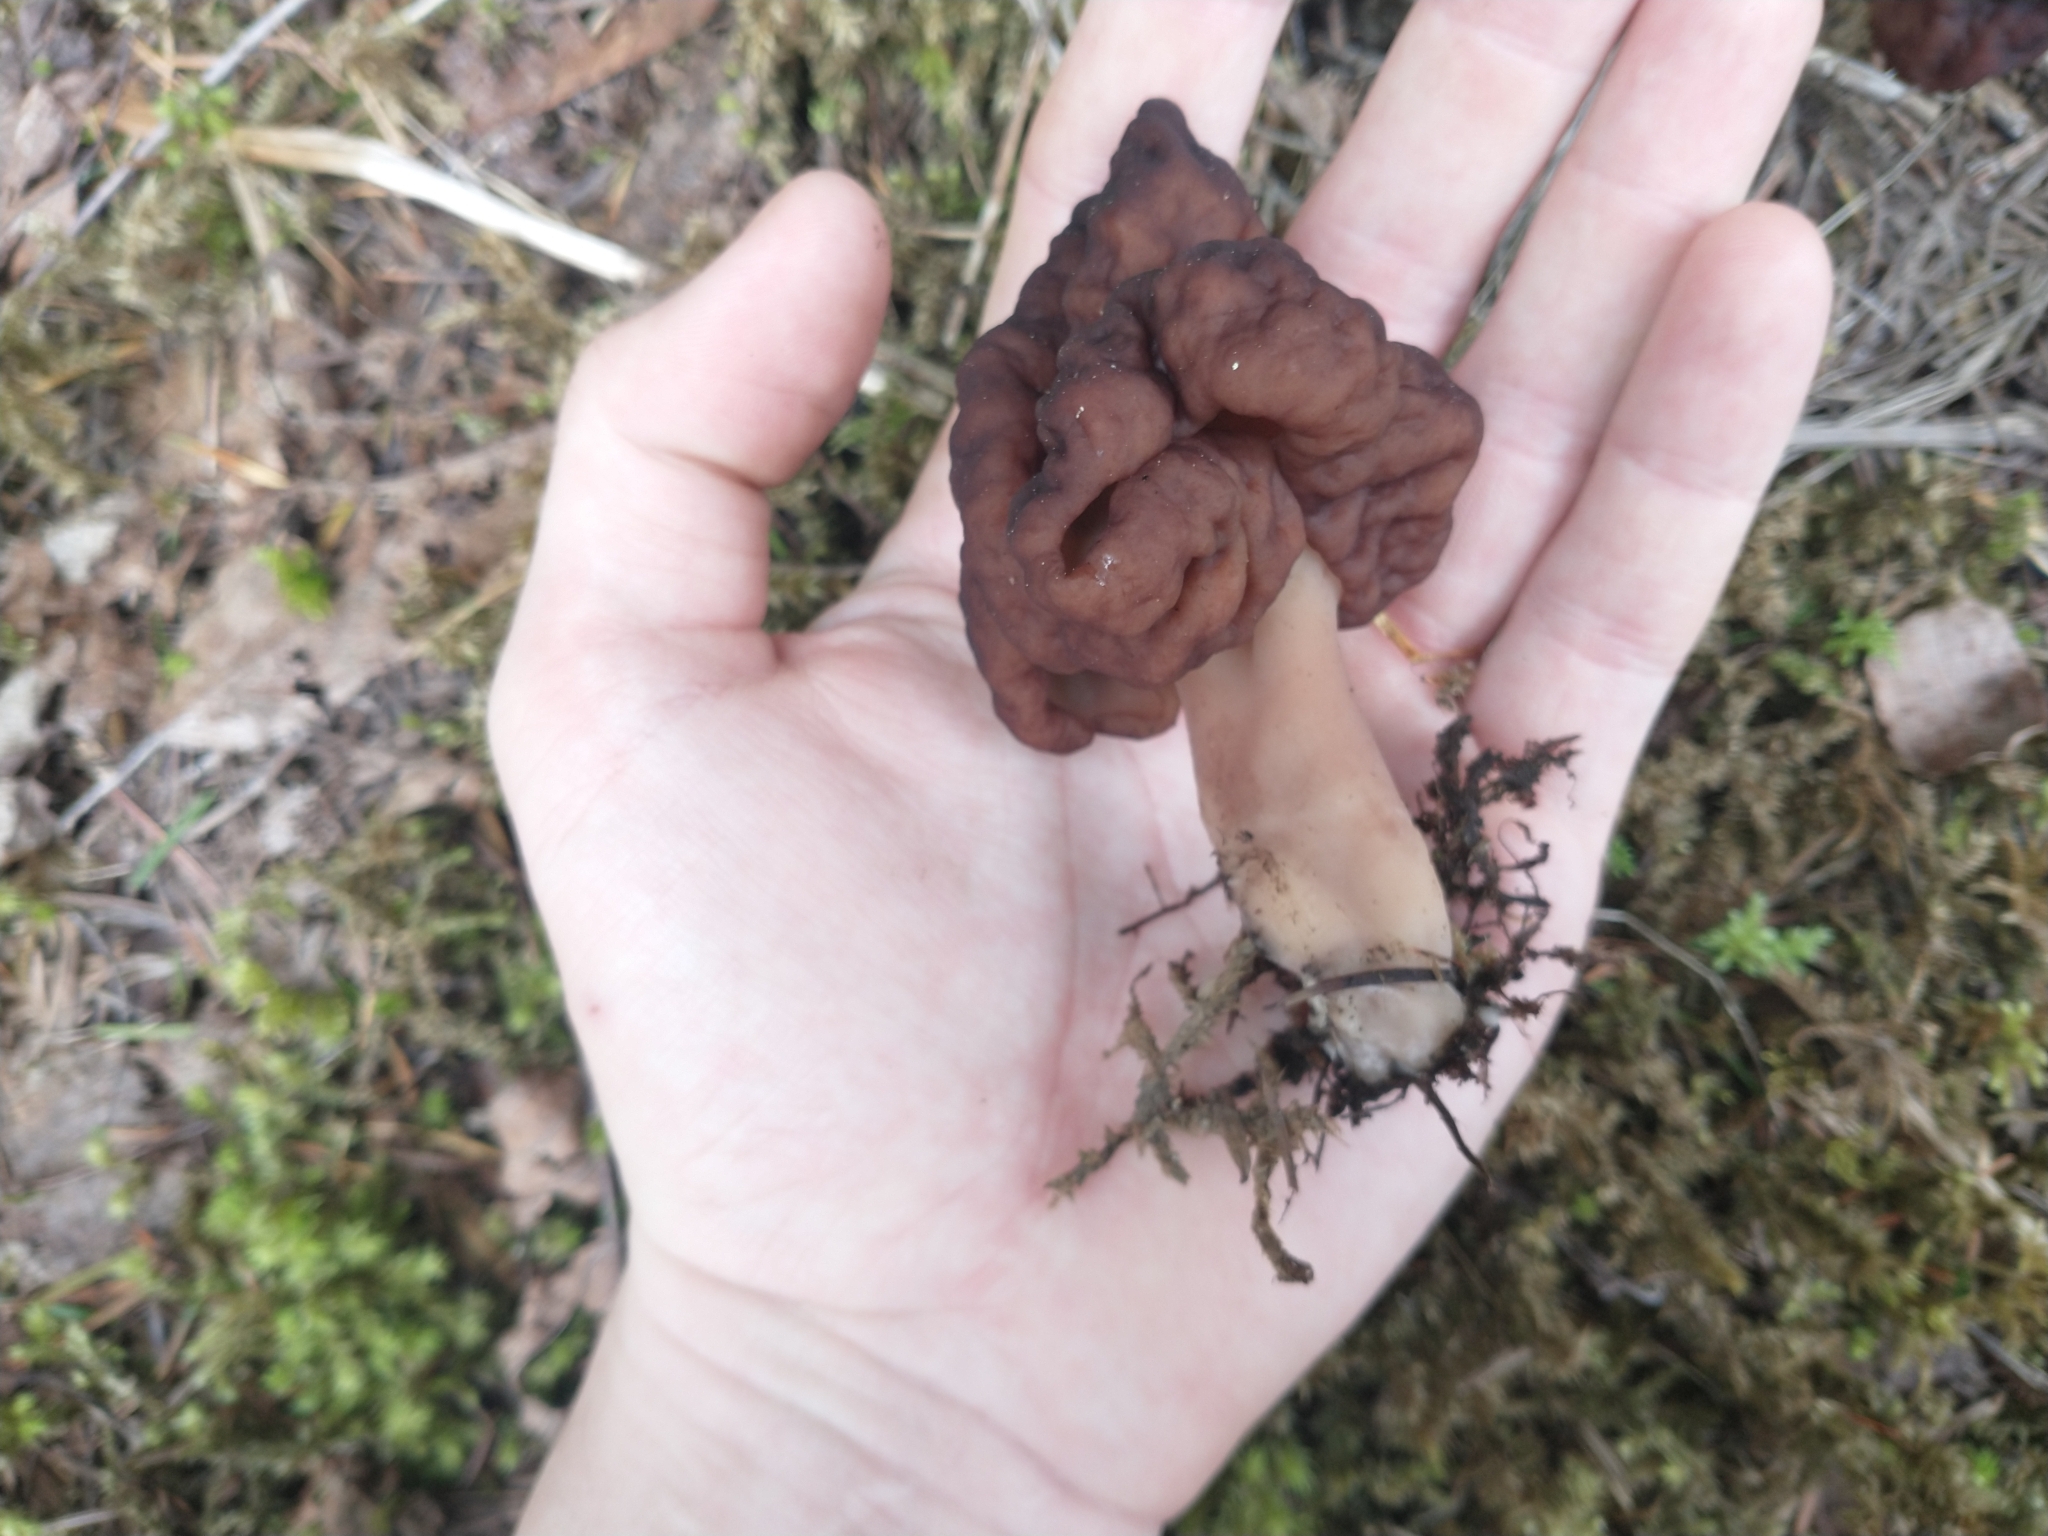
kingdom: Fungi
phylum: Ascomycota
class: Pezizomycetes
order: Pezizales
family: Discinaceae
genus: Gyromitra
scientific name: Gyromitra esculenta
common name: False morel
